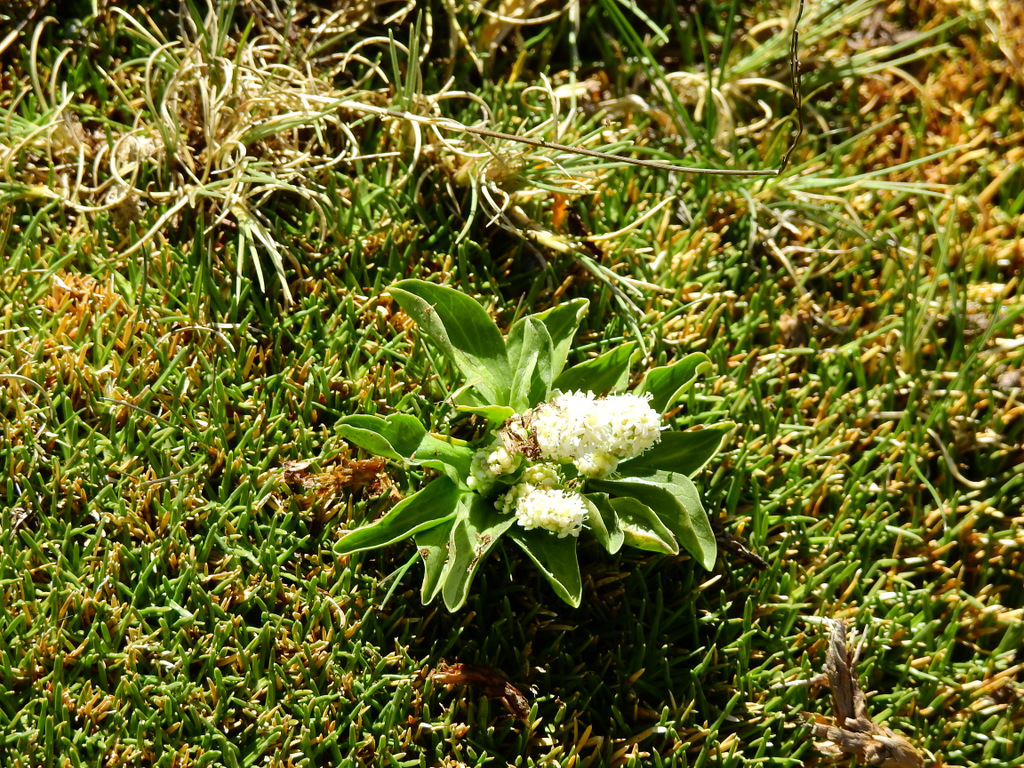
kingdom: Plantae
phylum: Tracheophyta
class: Magnoliopsida
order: Dipsacales
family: Caprifoliaceae
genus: Valeriana
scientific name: Valeriana macrorhiza
